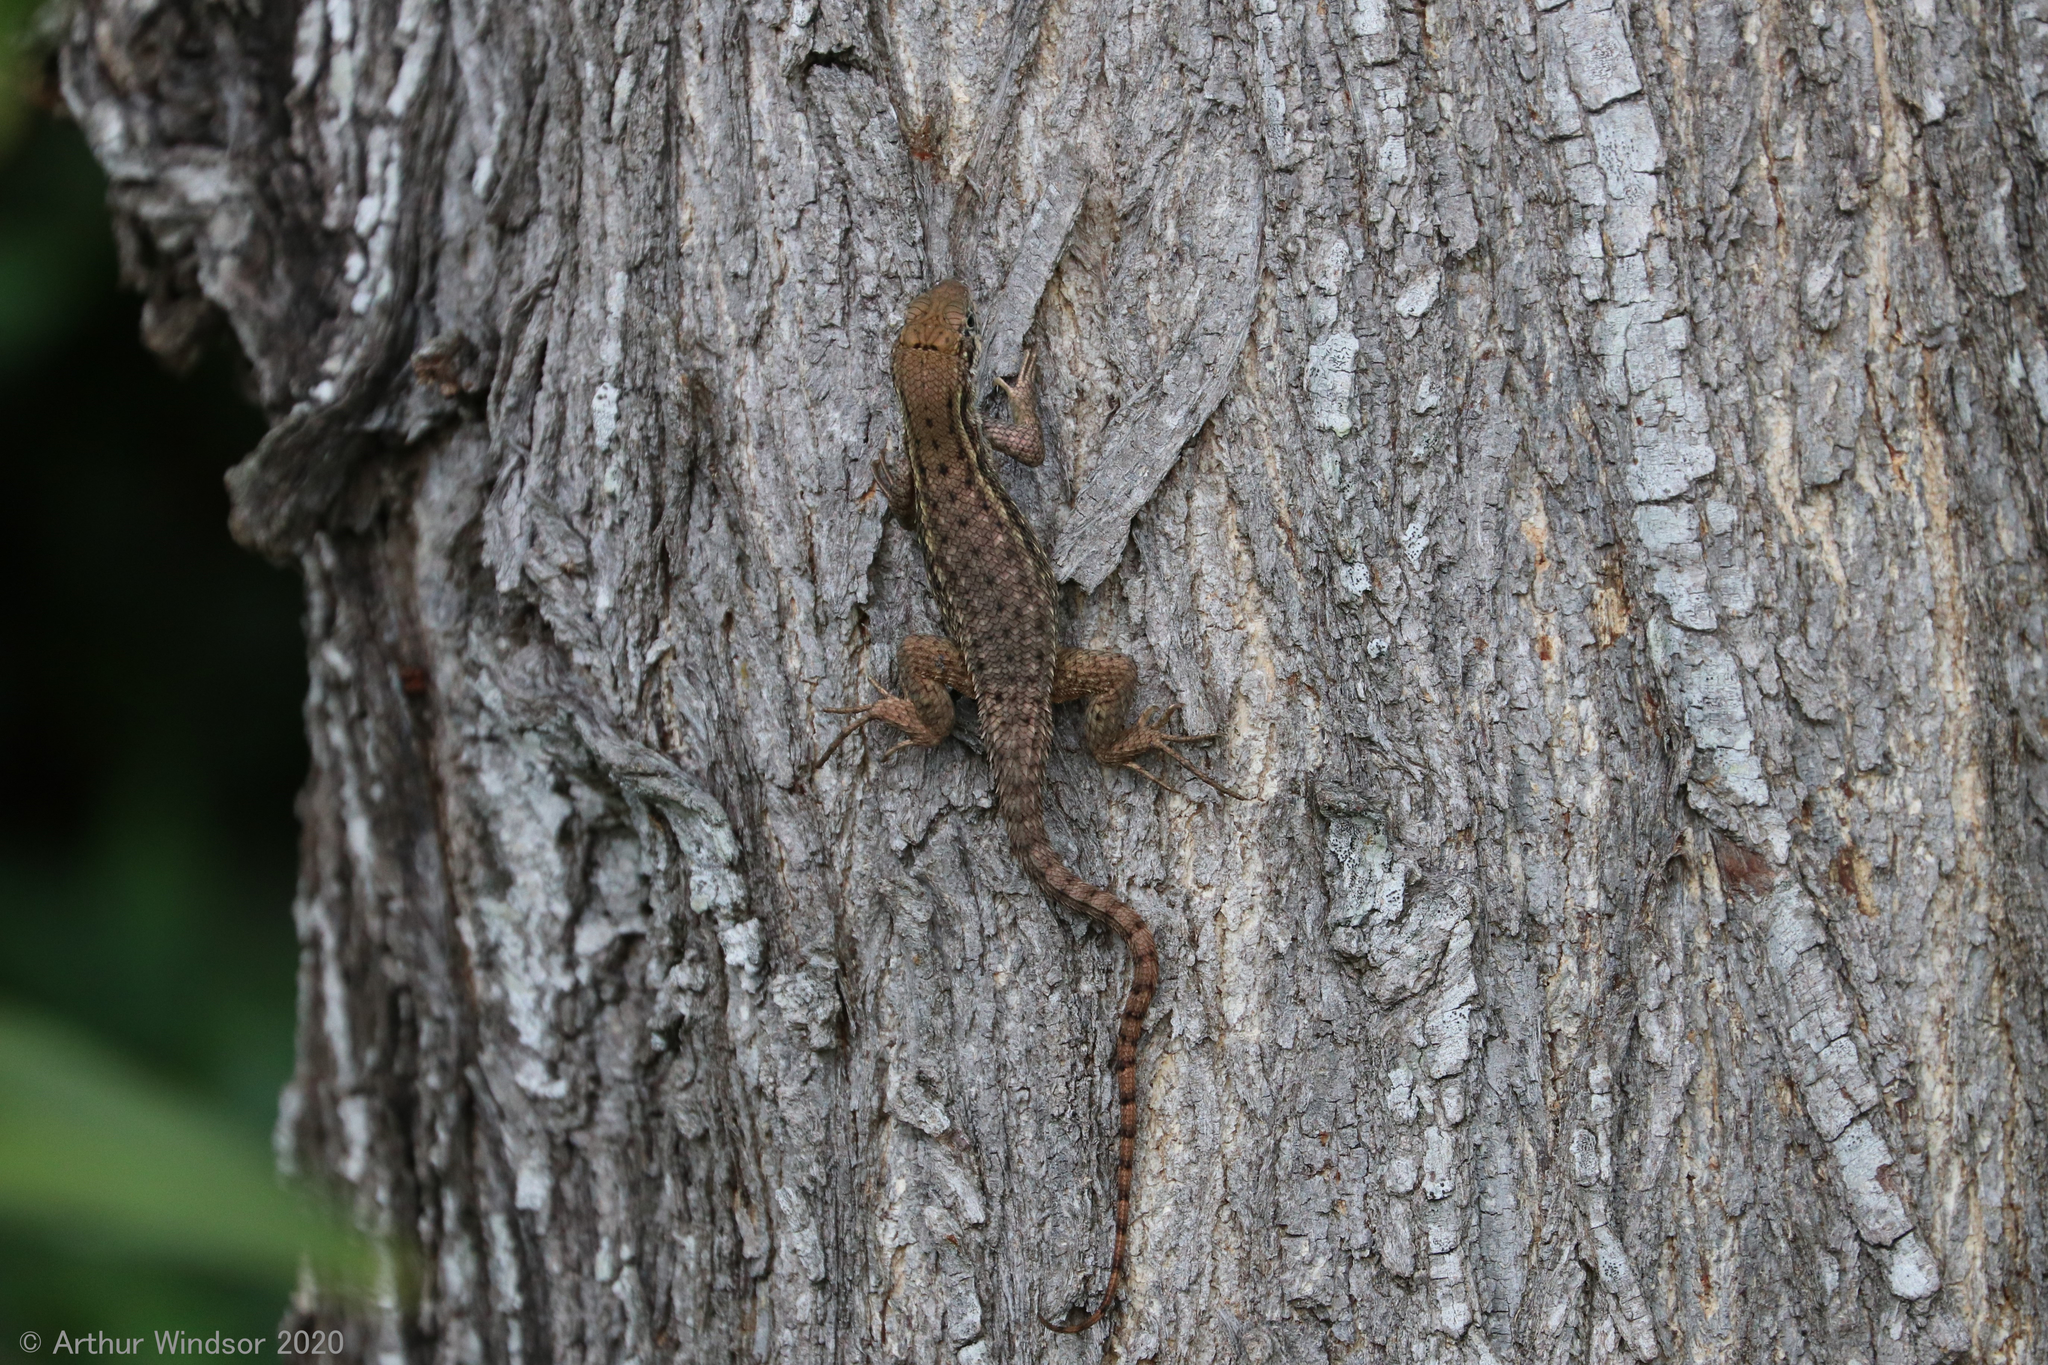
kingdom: Animalia
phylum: Chordata
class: Squamata
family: Leiocephalidae
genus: Leiocephalus
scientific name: Leiocephalus carinatus
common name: Northern curly-tailed lizard
